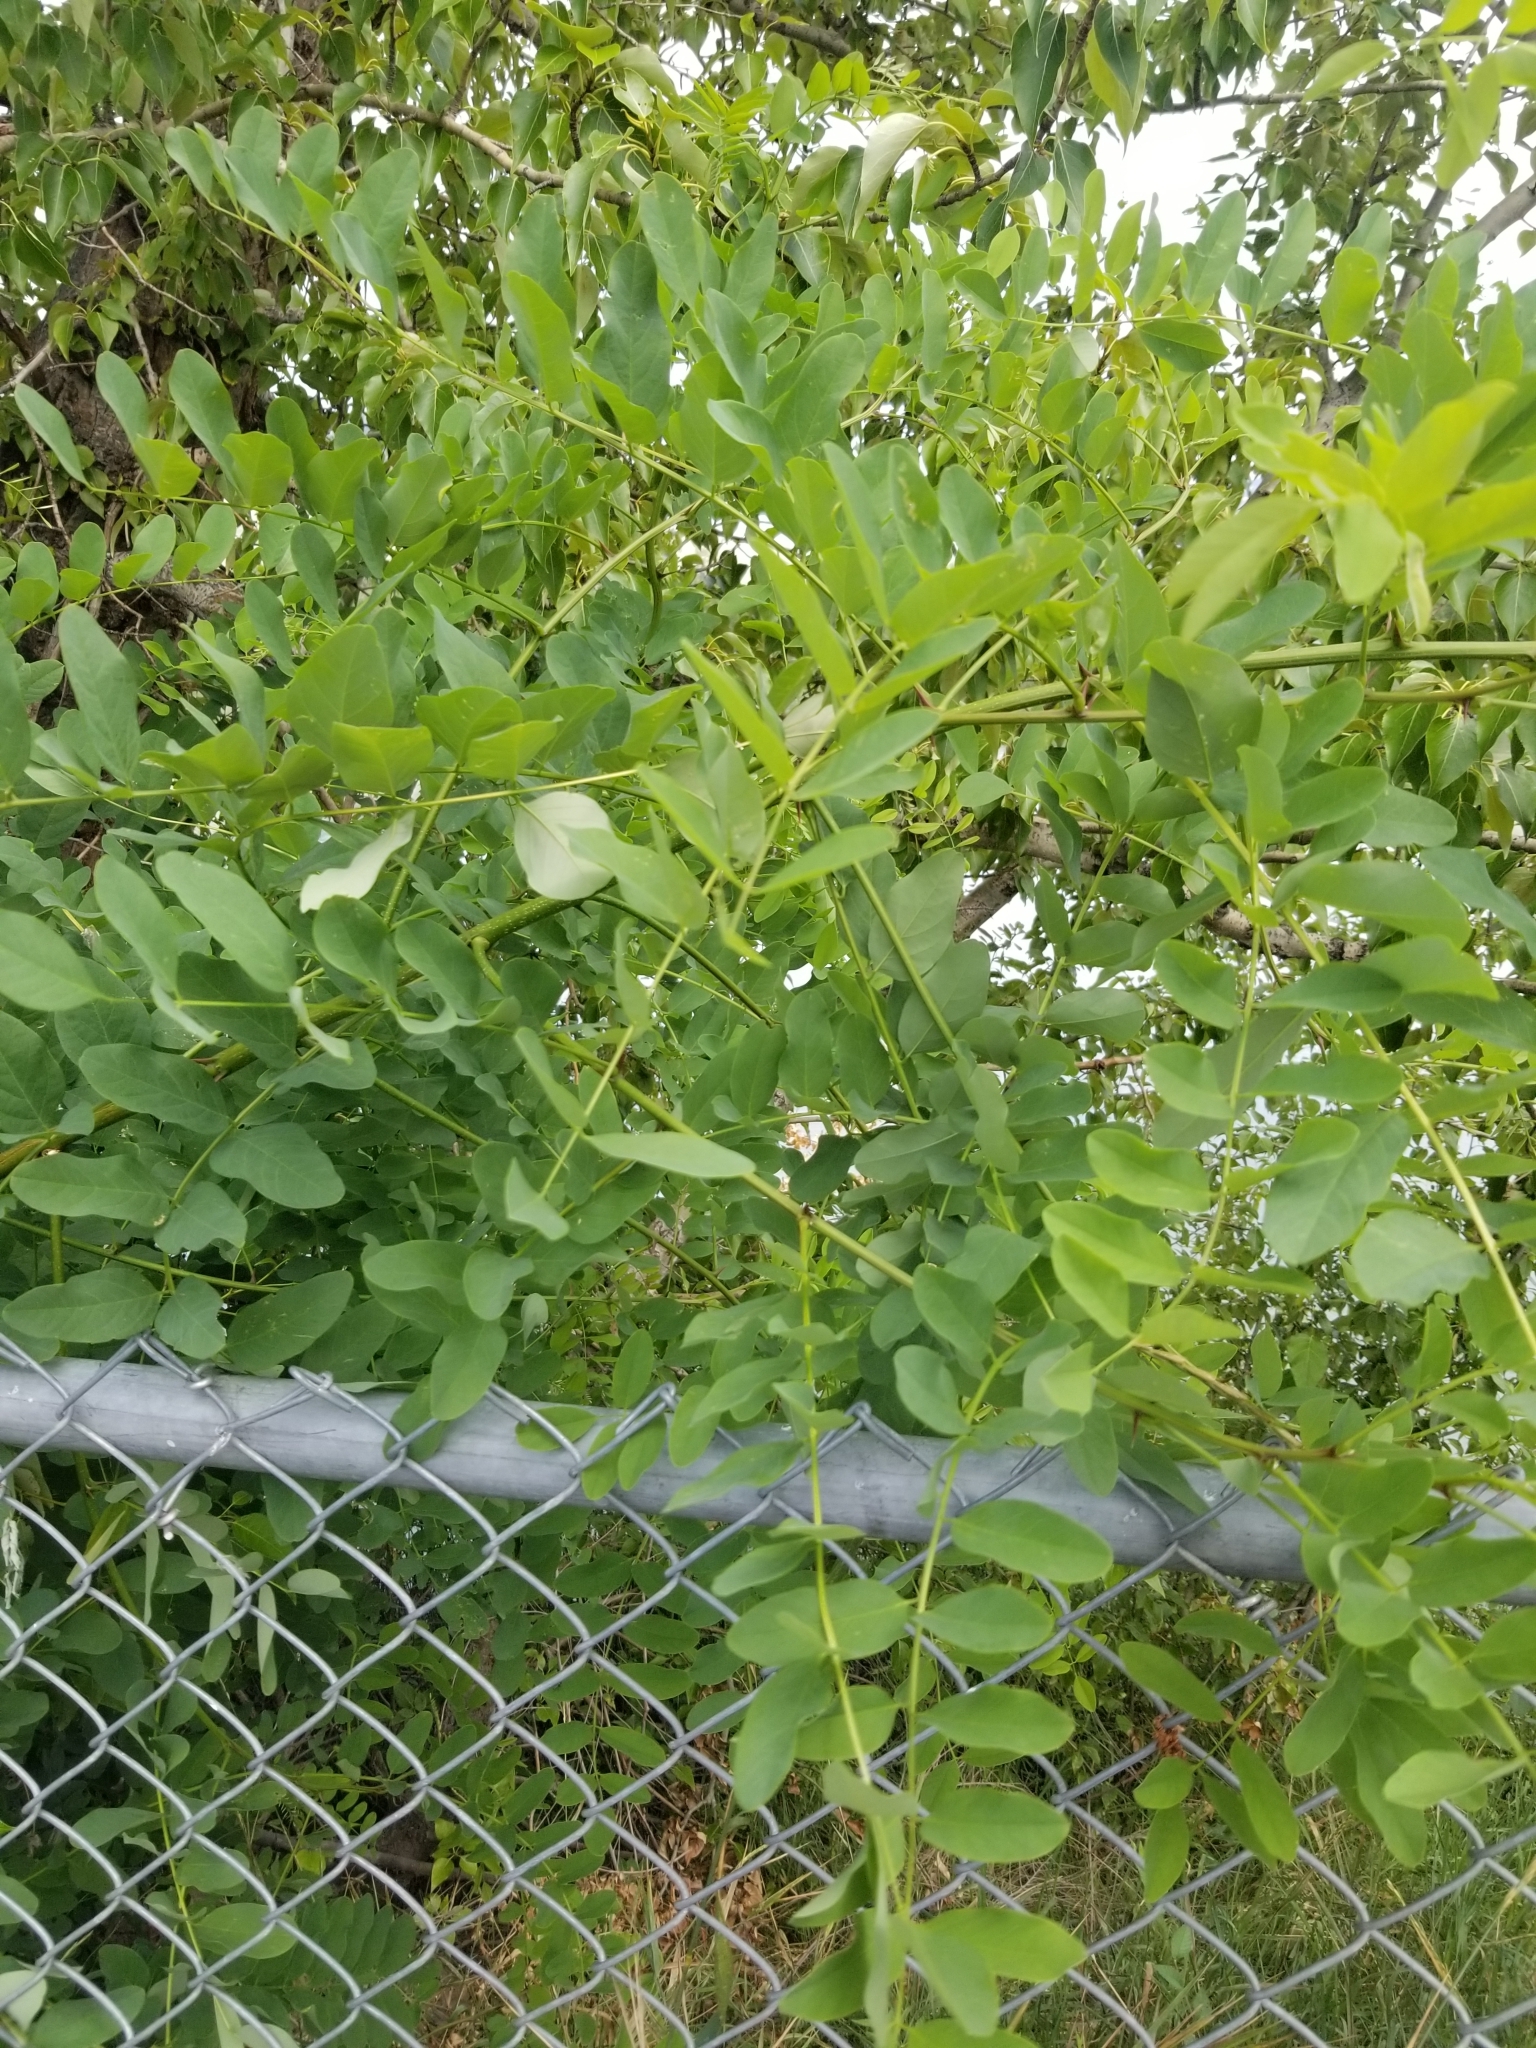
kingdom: Plantae
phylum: Tracheophyta
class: Magnoliopsida
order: Fabales
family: Fabaceae
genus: Robinia
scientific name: Robinia pseudoacacia
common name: Black locust
